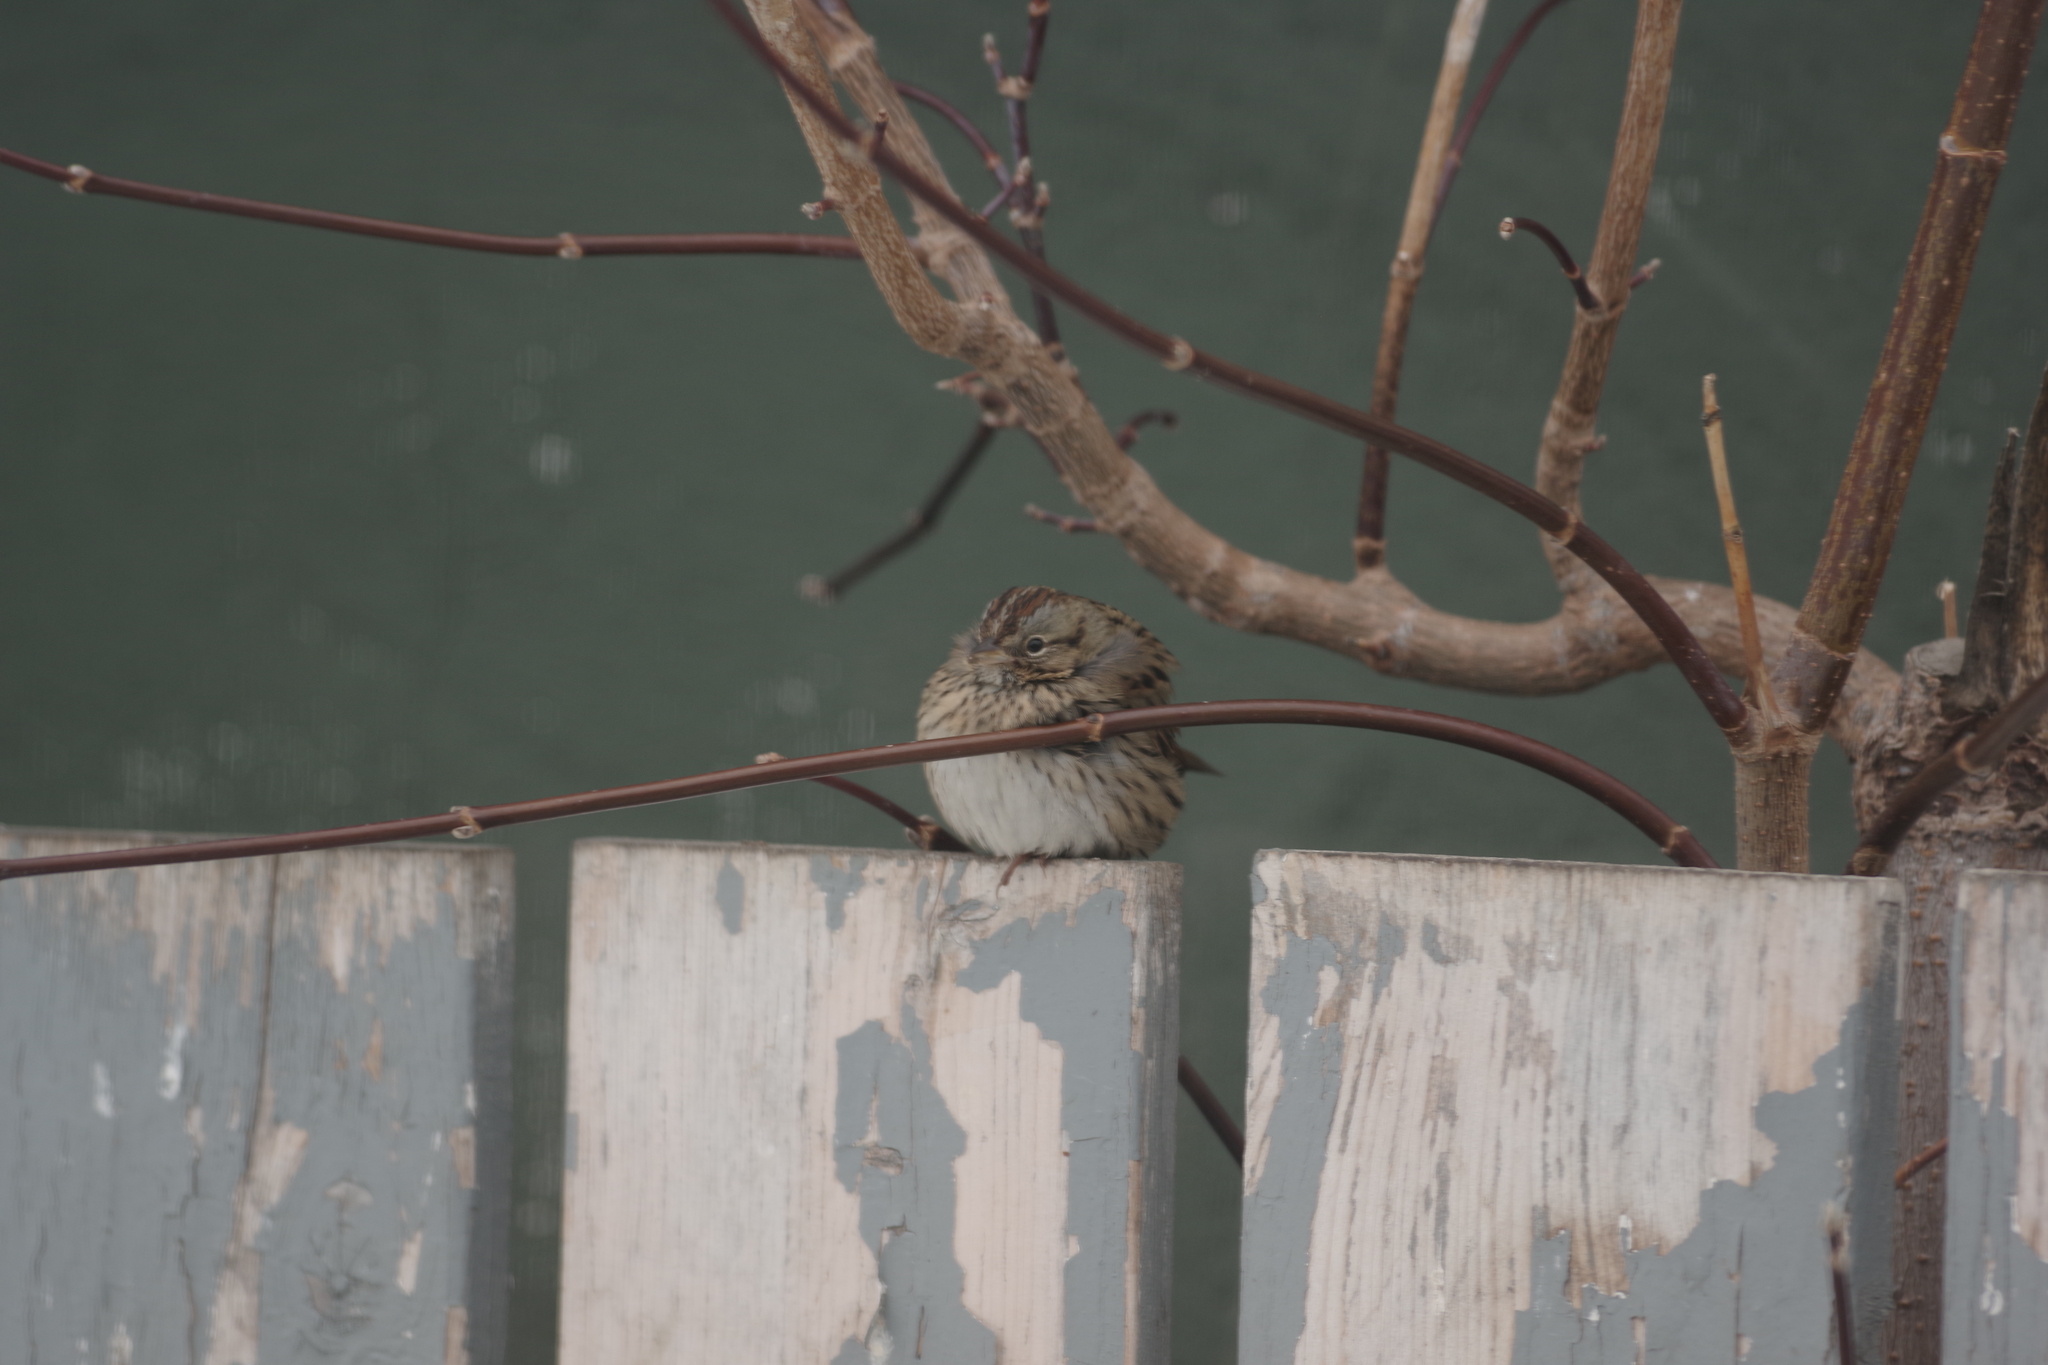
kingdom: Animalia
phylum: Chordata
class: Aves
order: Passeriformes
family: Passerellidae
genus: Melospiza
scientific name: Melospiza lincolnii
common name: Lincoln's sparrow
